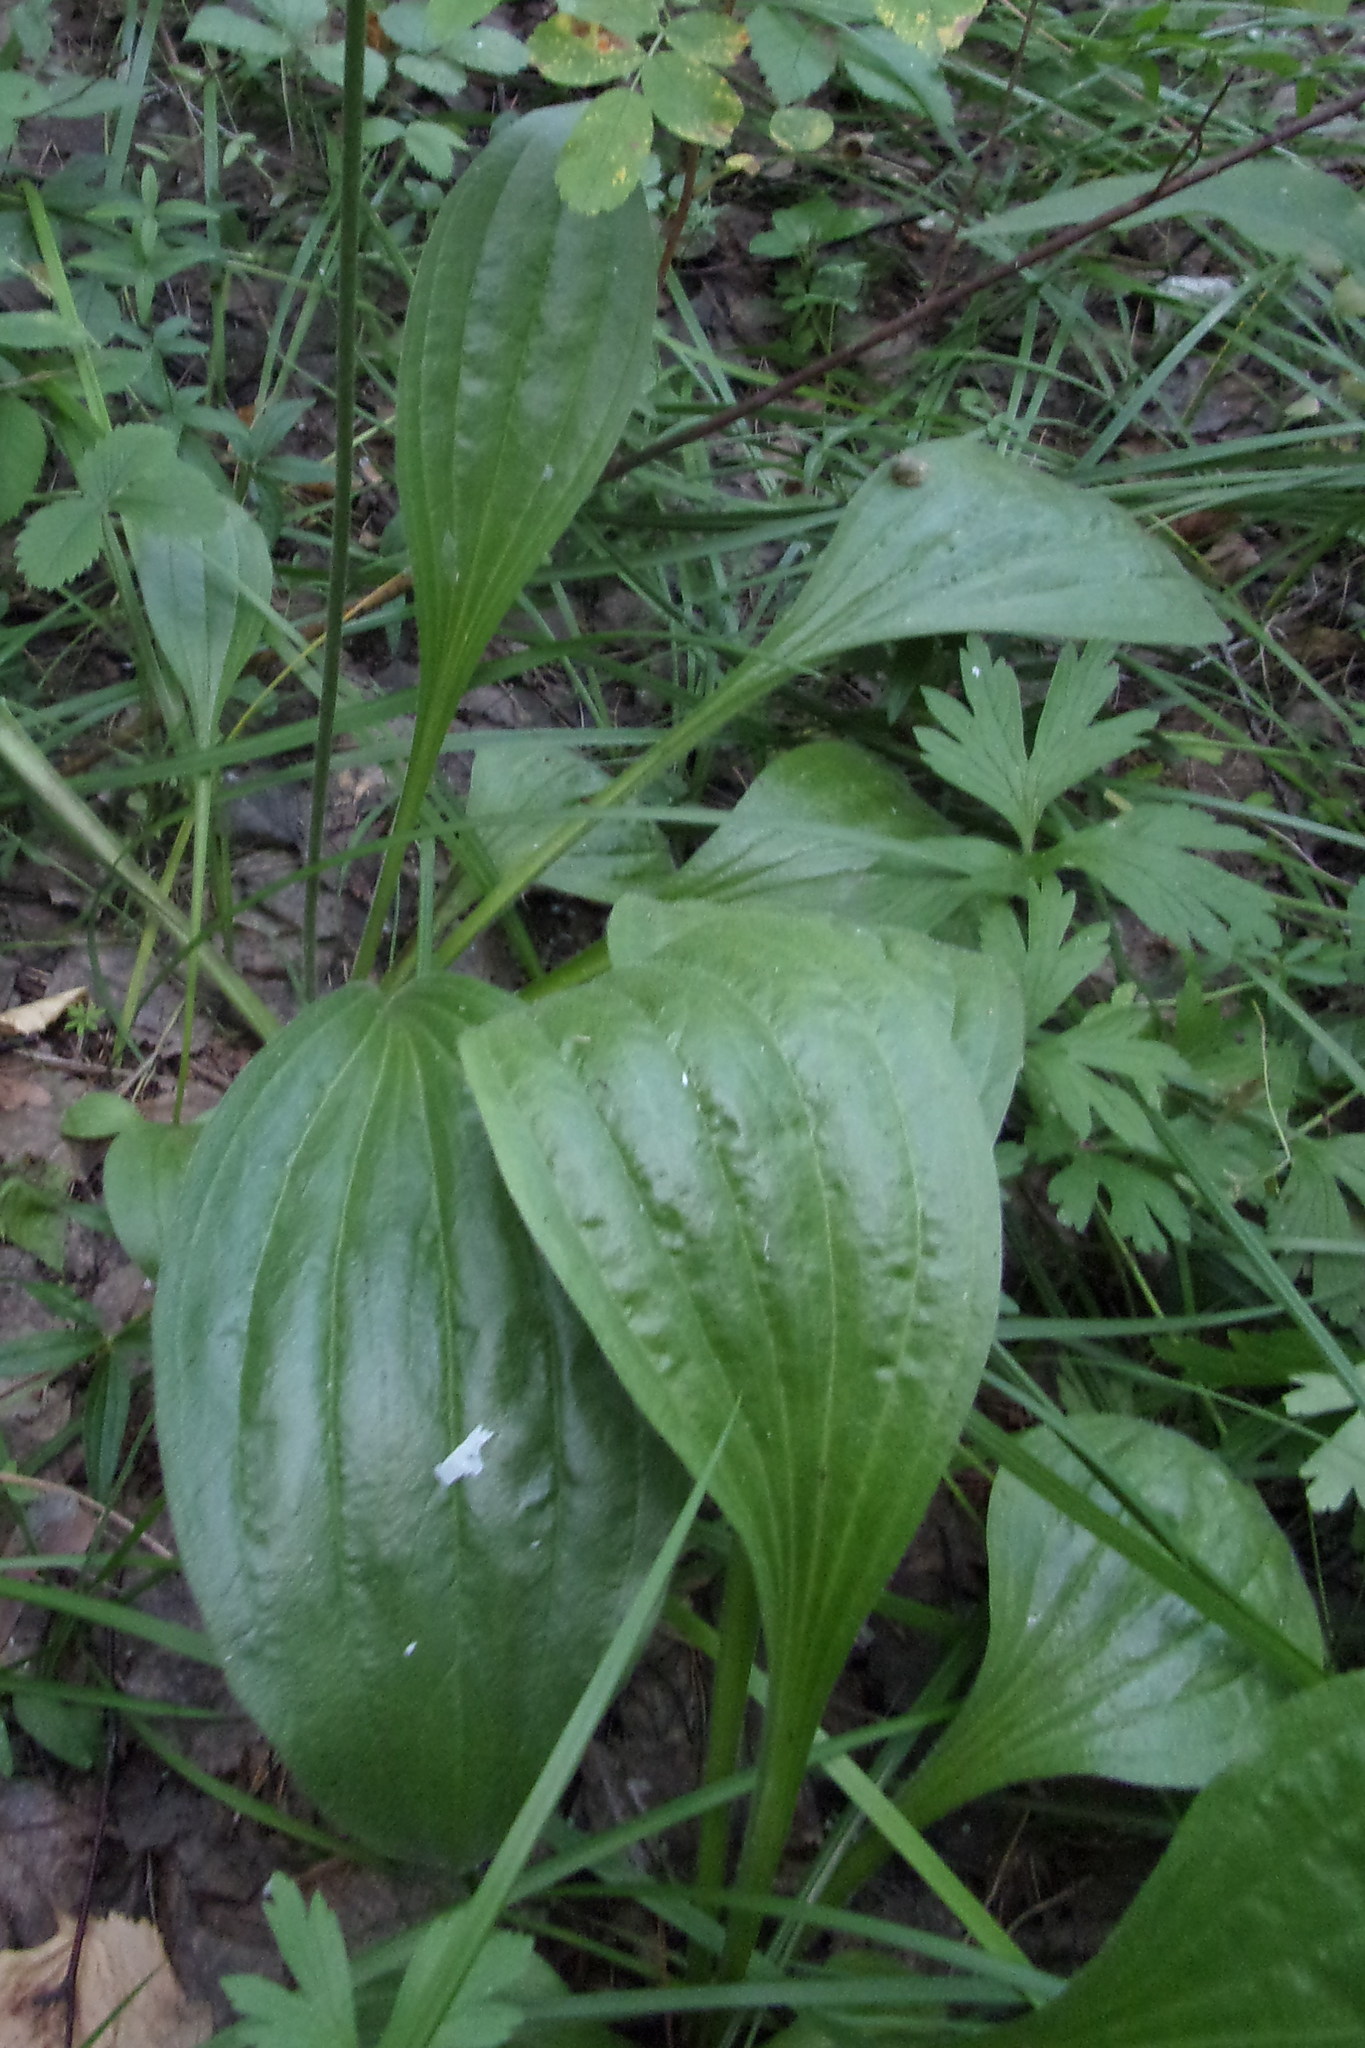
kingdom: Plantae
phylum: Tracheophyta
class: Magnoliopsida
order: Lamiales
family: Plantaginaceae
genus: Plantago
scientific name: Plantago urvillei
